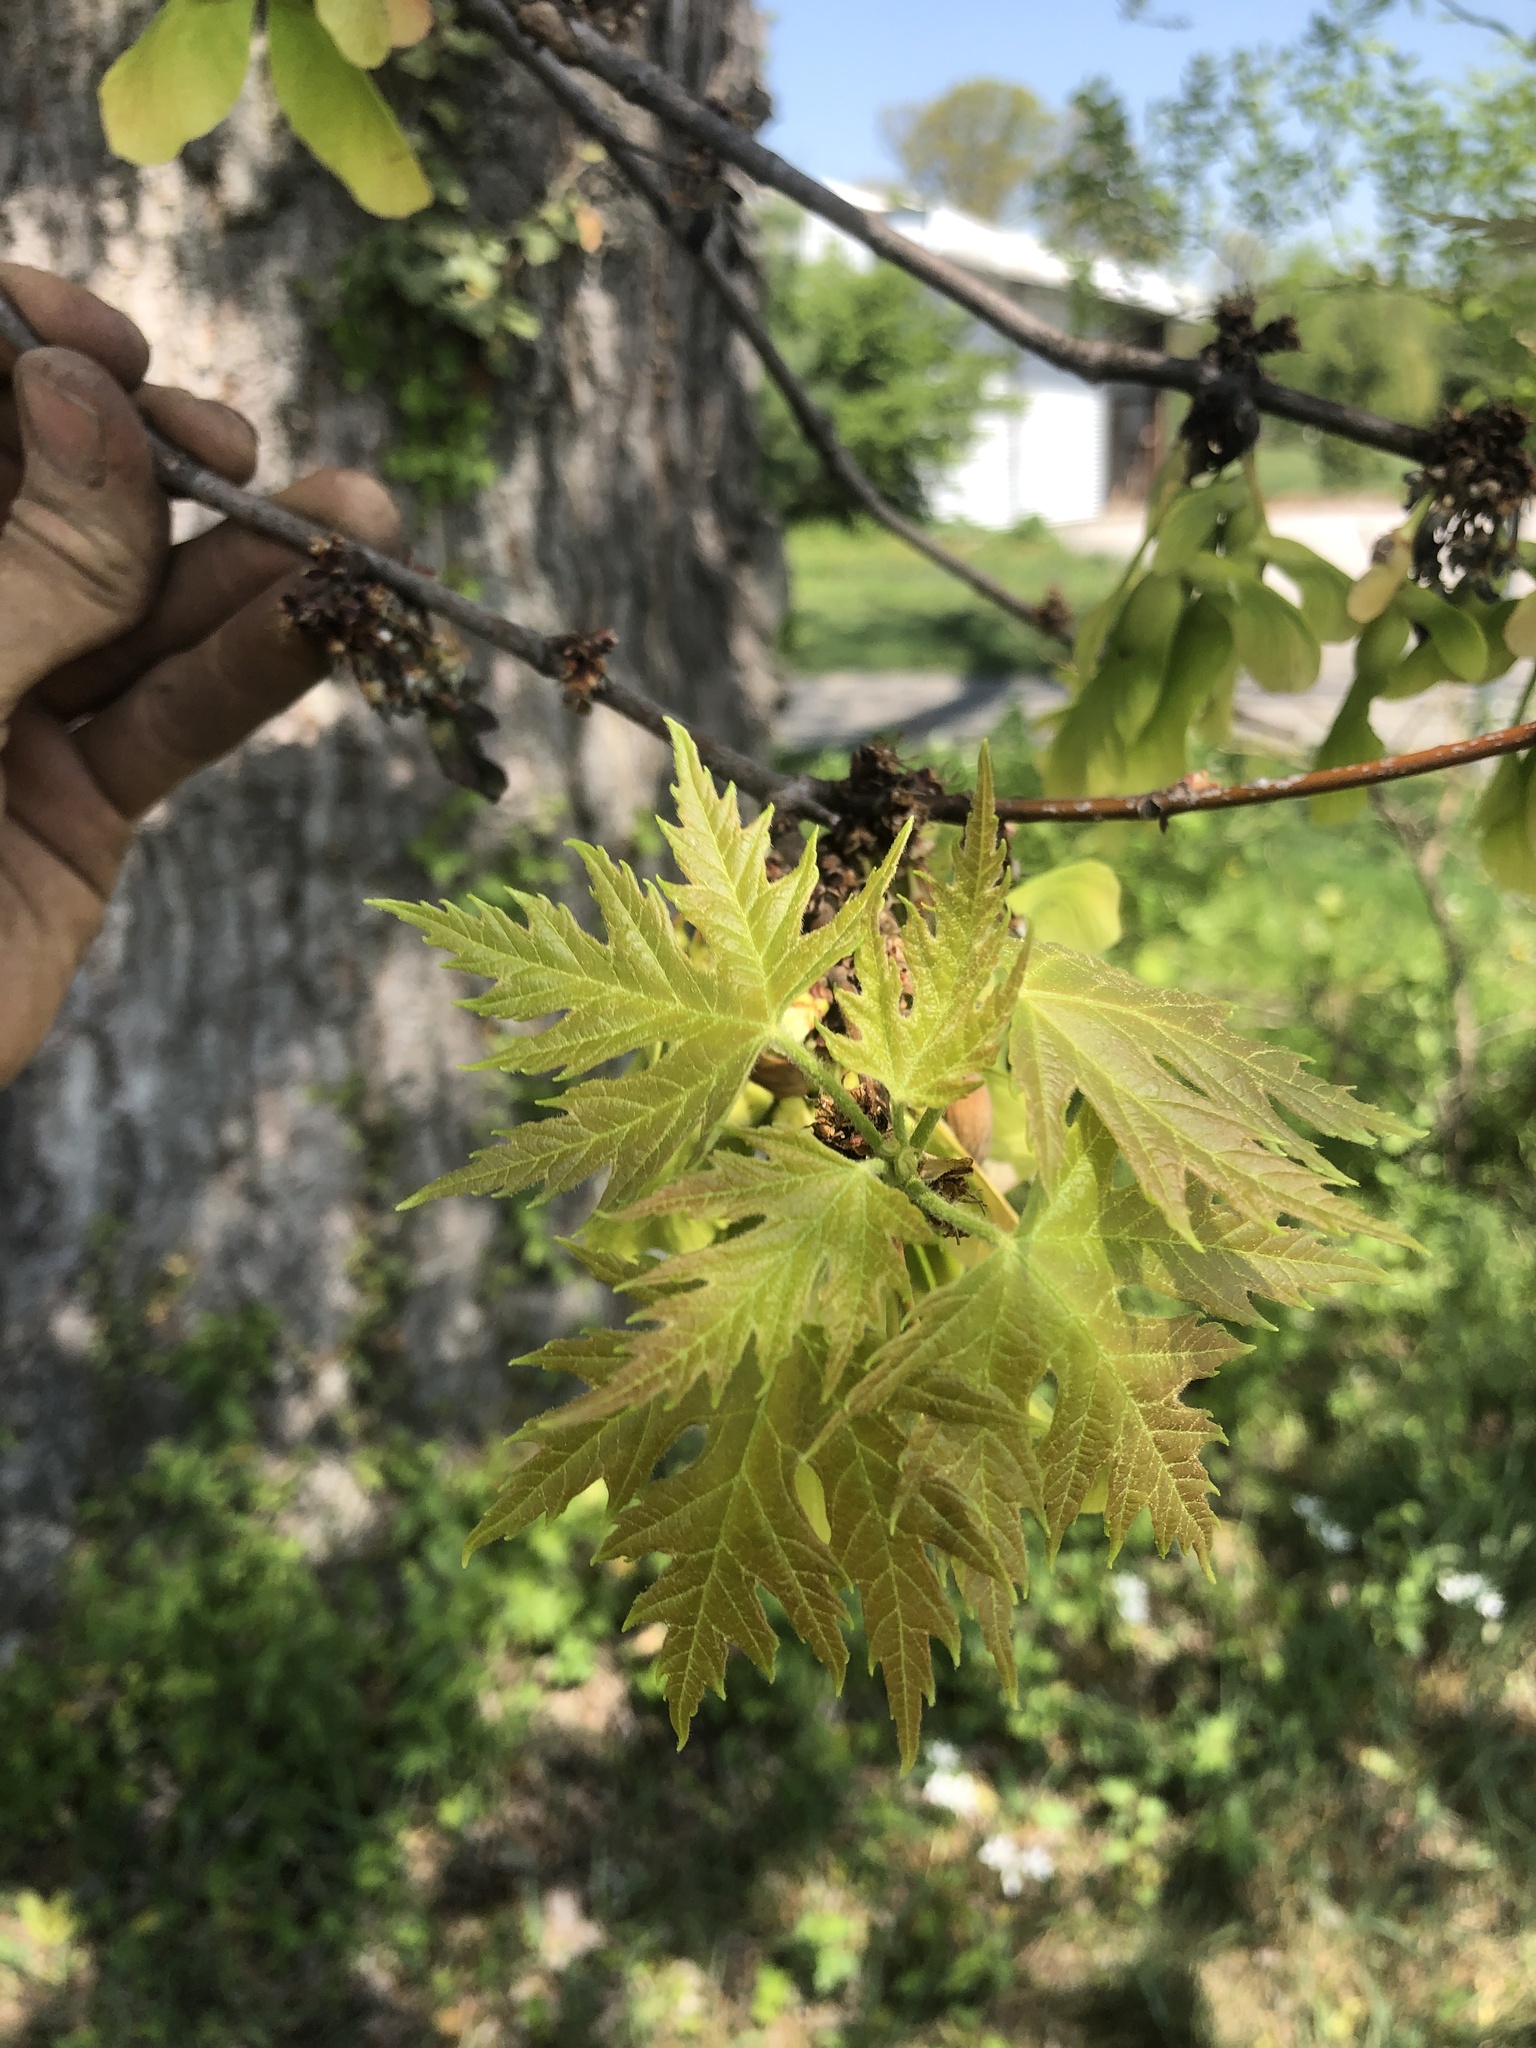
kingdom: Plantae
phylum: Tracheophyta
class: Magnoliopsida
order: Sapindales
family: Sapindaceae
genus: Acer
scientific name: Acer saccharinum
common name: Silver maple
